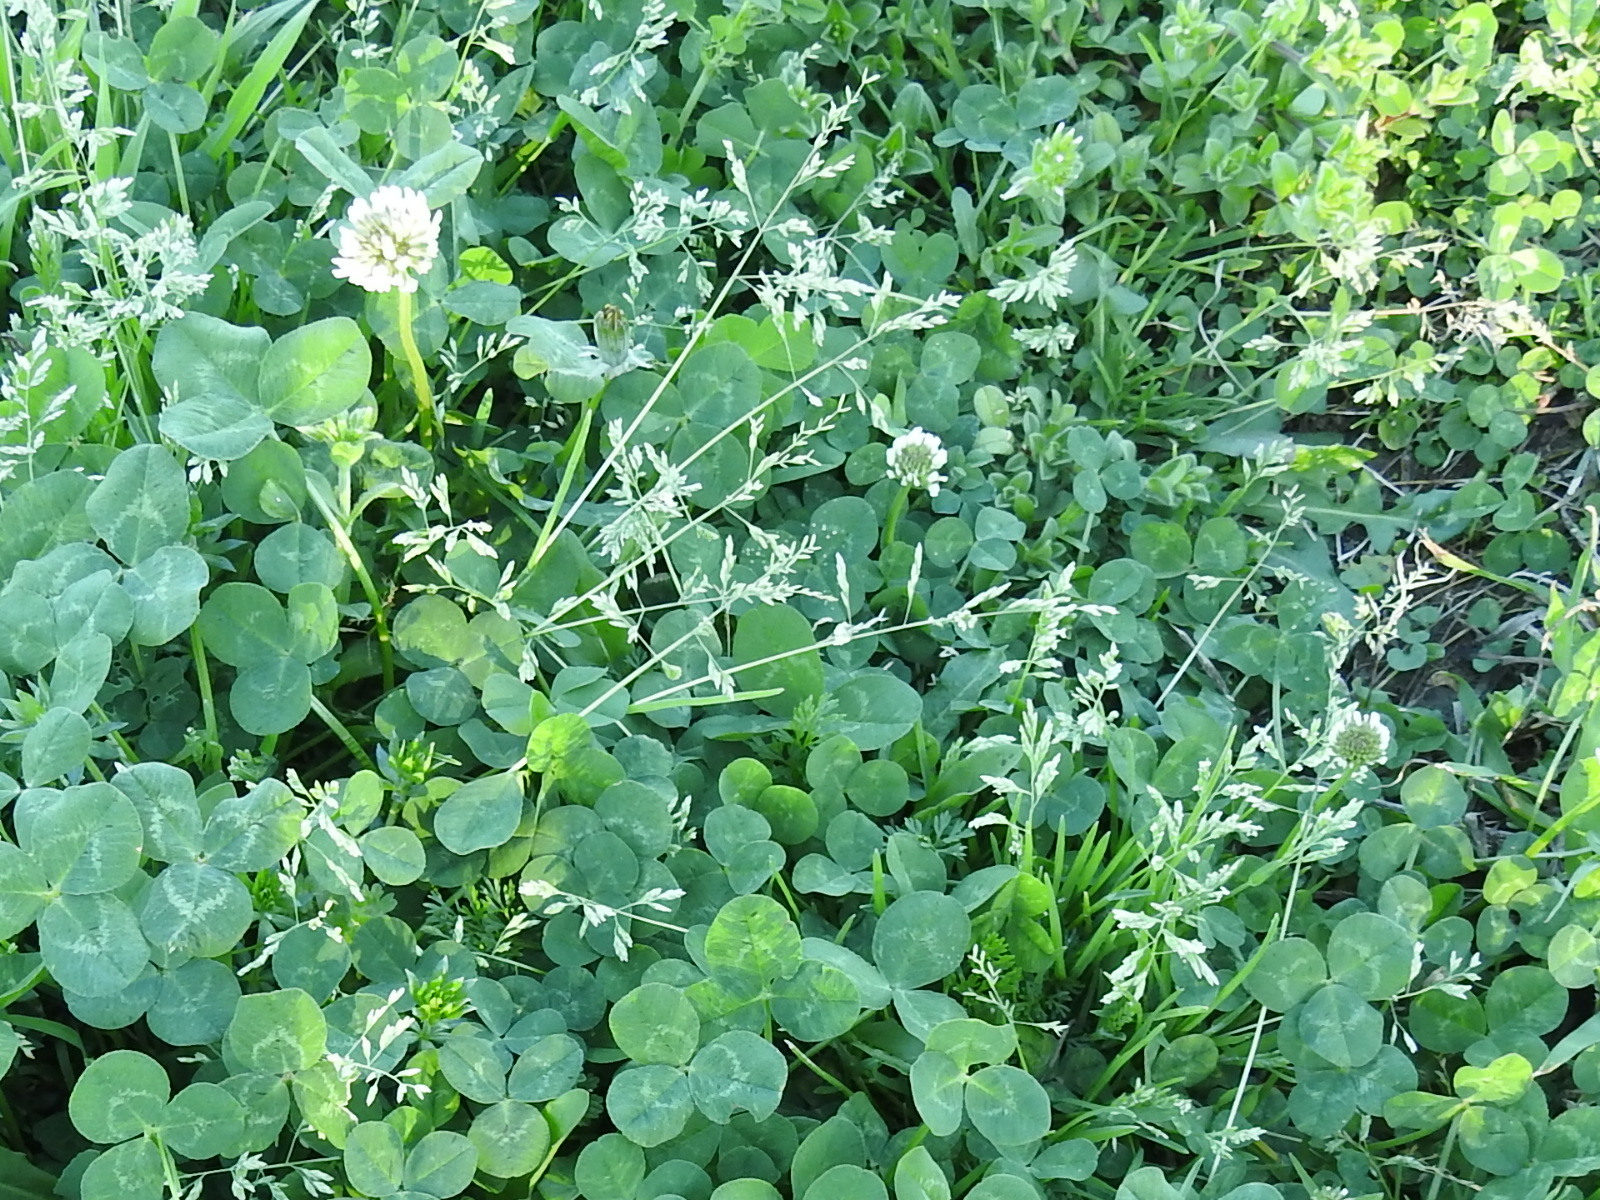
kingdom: Plantae
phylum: Tracheophyta
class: Magnoliopsida
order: Fabales
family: Fabaceae
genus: Trifolium
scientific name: Trifolium repens
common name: White clover
